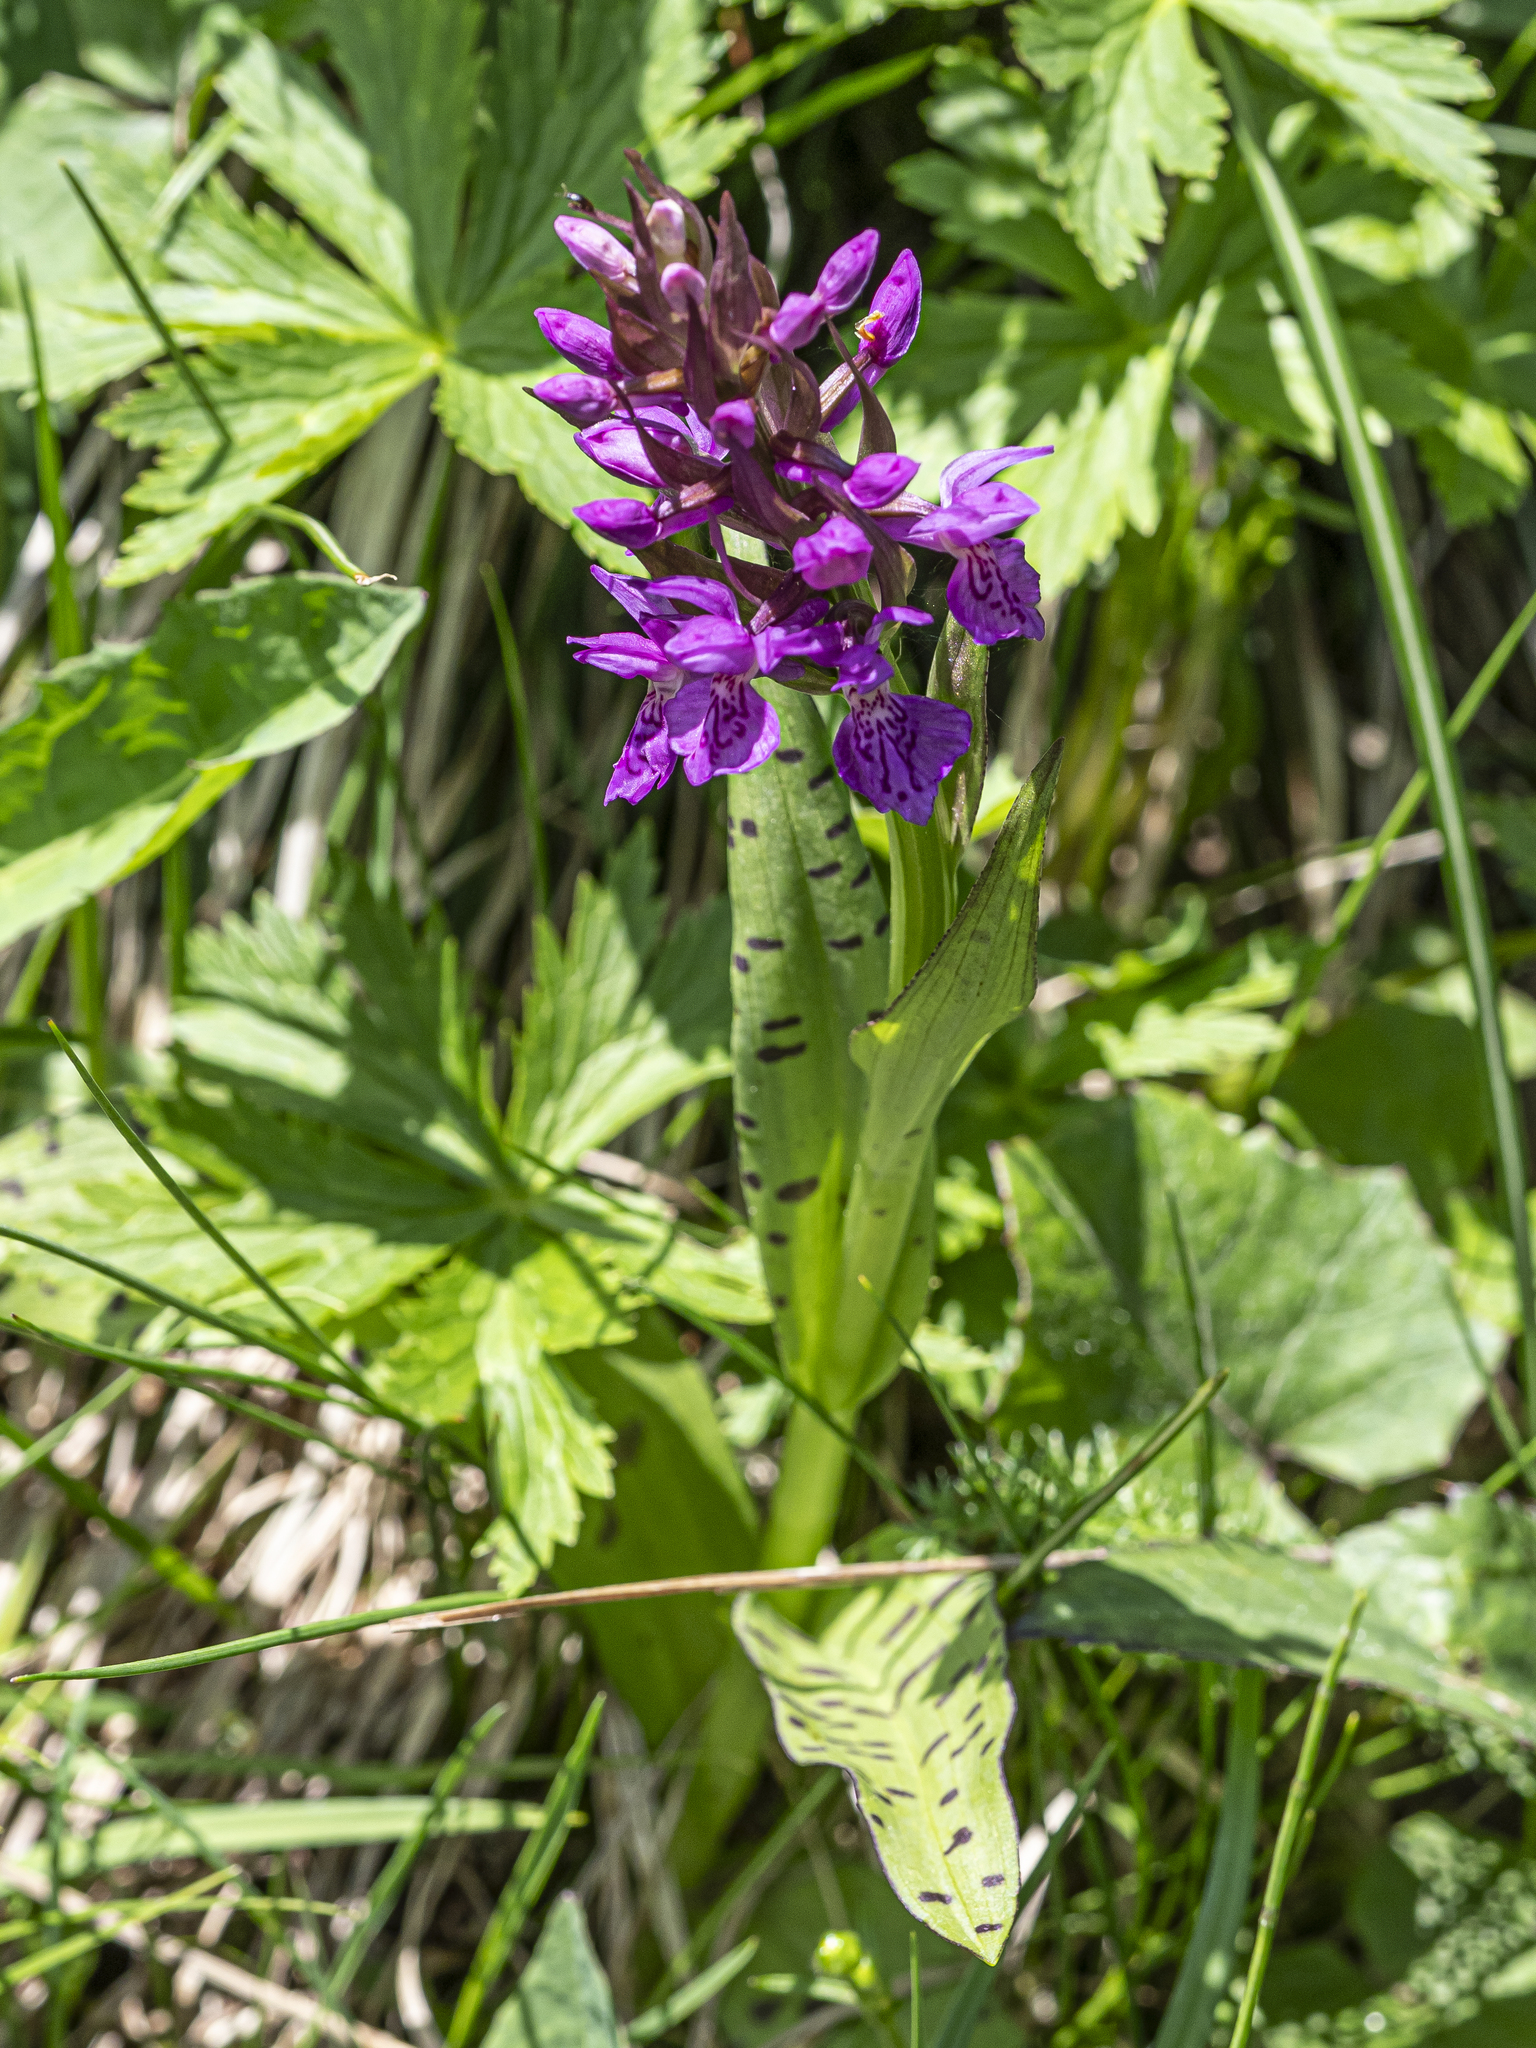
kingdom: Plantae
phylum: Tracheophyta
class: Liliopsida
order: Asparagales
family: Orchidaceae
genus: Dactylorhiza
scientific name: Dactylorhiza majalis
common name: Marsh orchid
